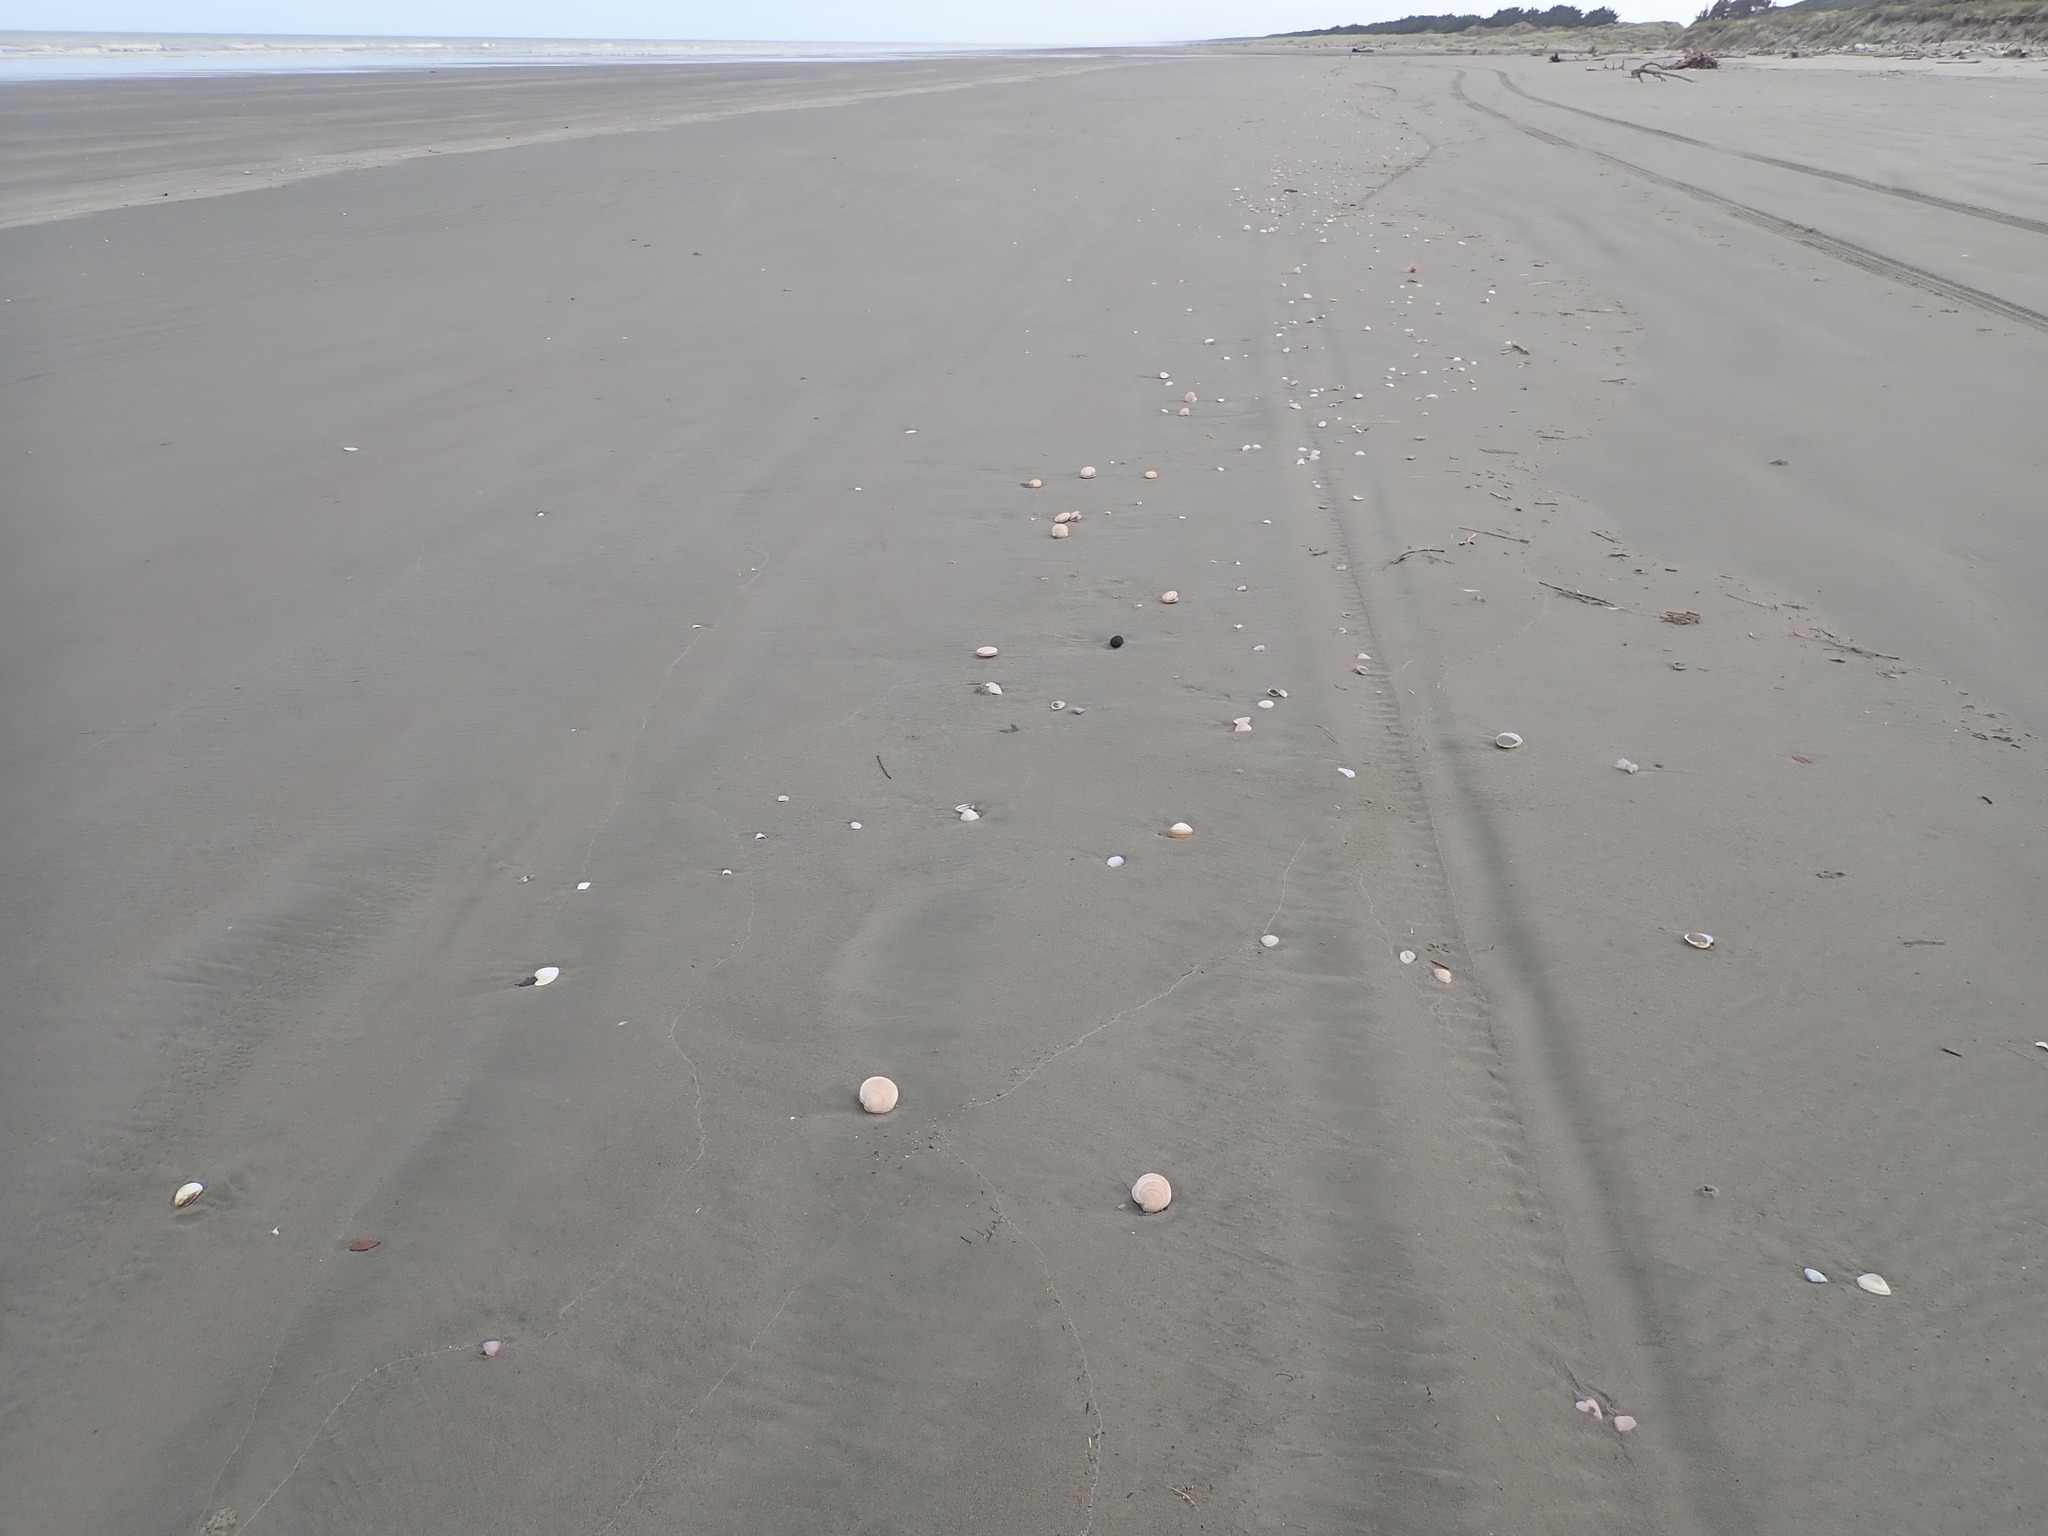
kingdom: Animalia
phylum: Mollusca
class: Bivalvia
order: Venerida
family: Veneridae
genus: Dosinia
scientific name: Dosinia anus
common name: Old-woman dosinia
